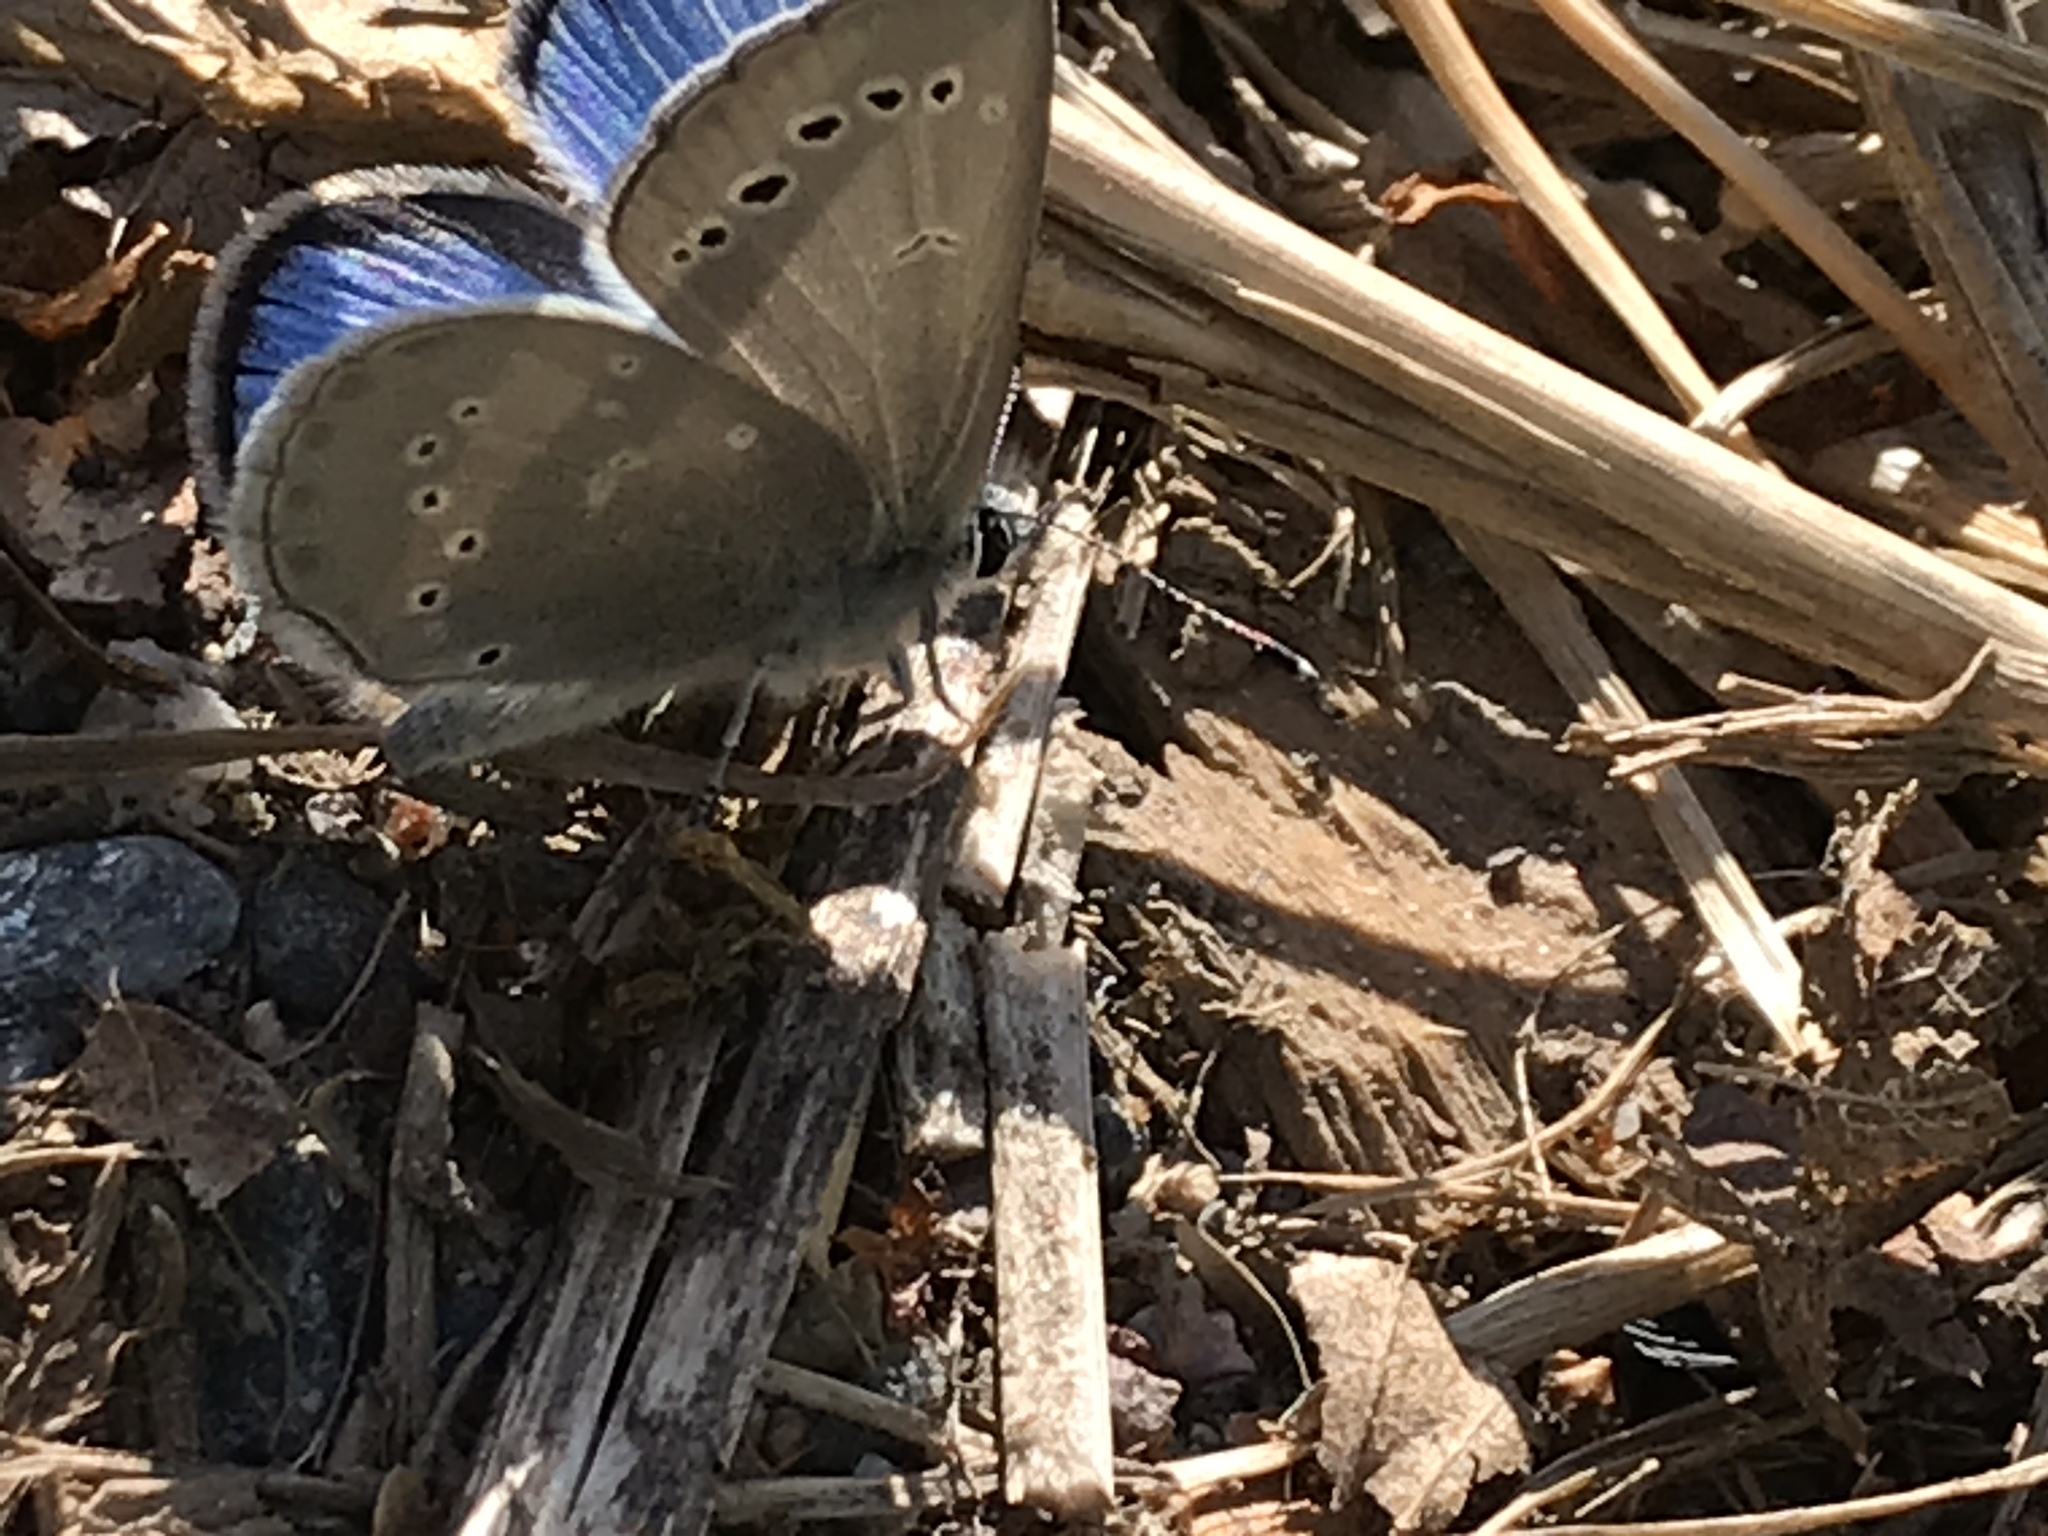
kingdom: Animalia
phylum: Arthropoda
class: Insecta
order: Lepidoptera
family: Lycaenidae
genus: Glaucopsyche
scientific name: Glaucopsyche lygdamus
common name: Silvery blue
